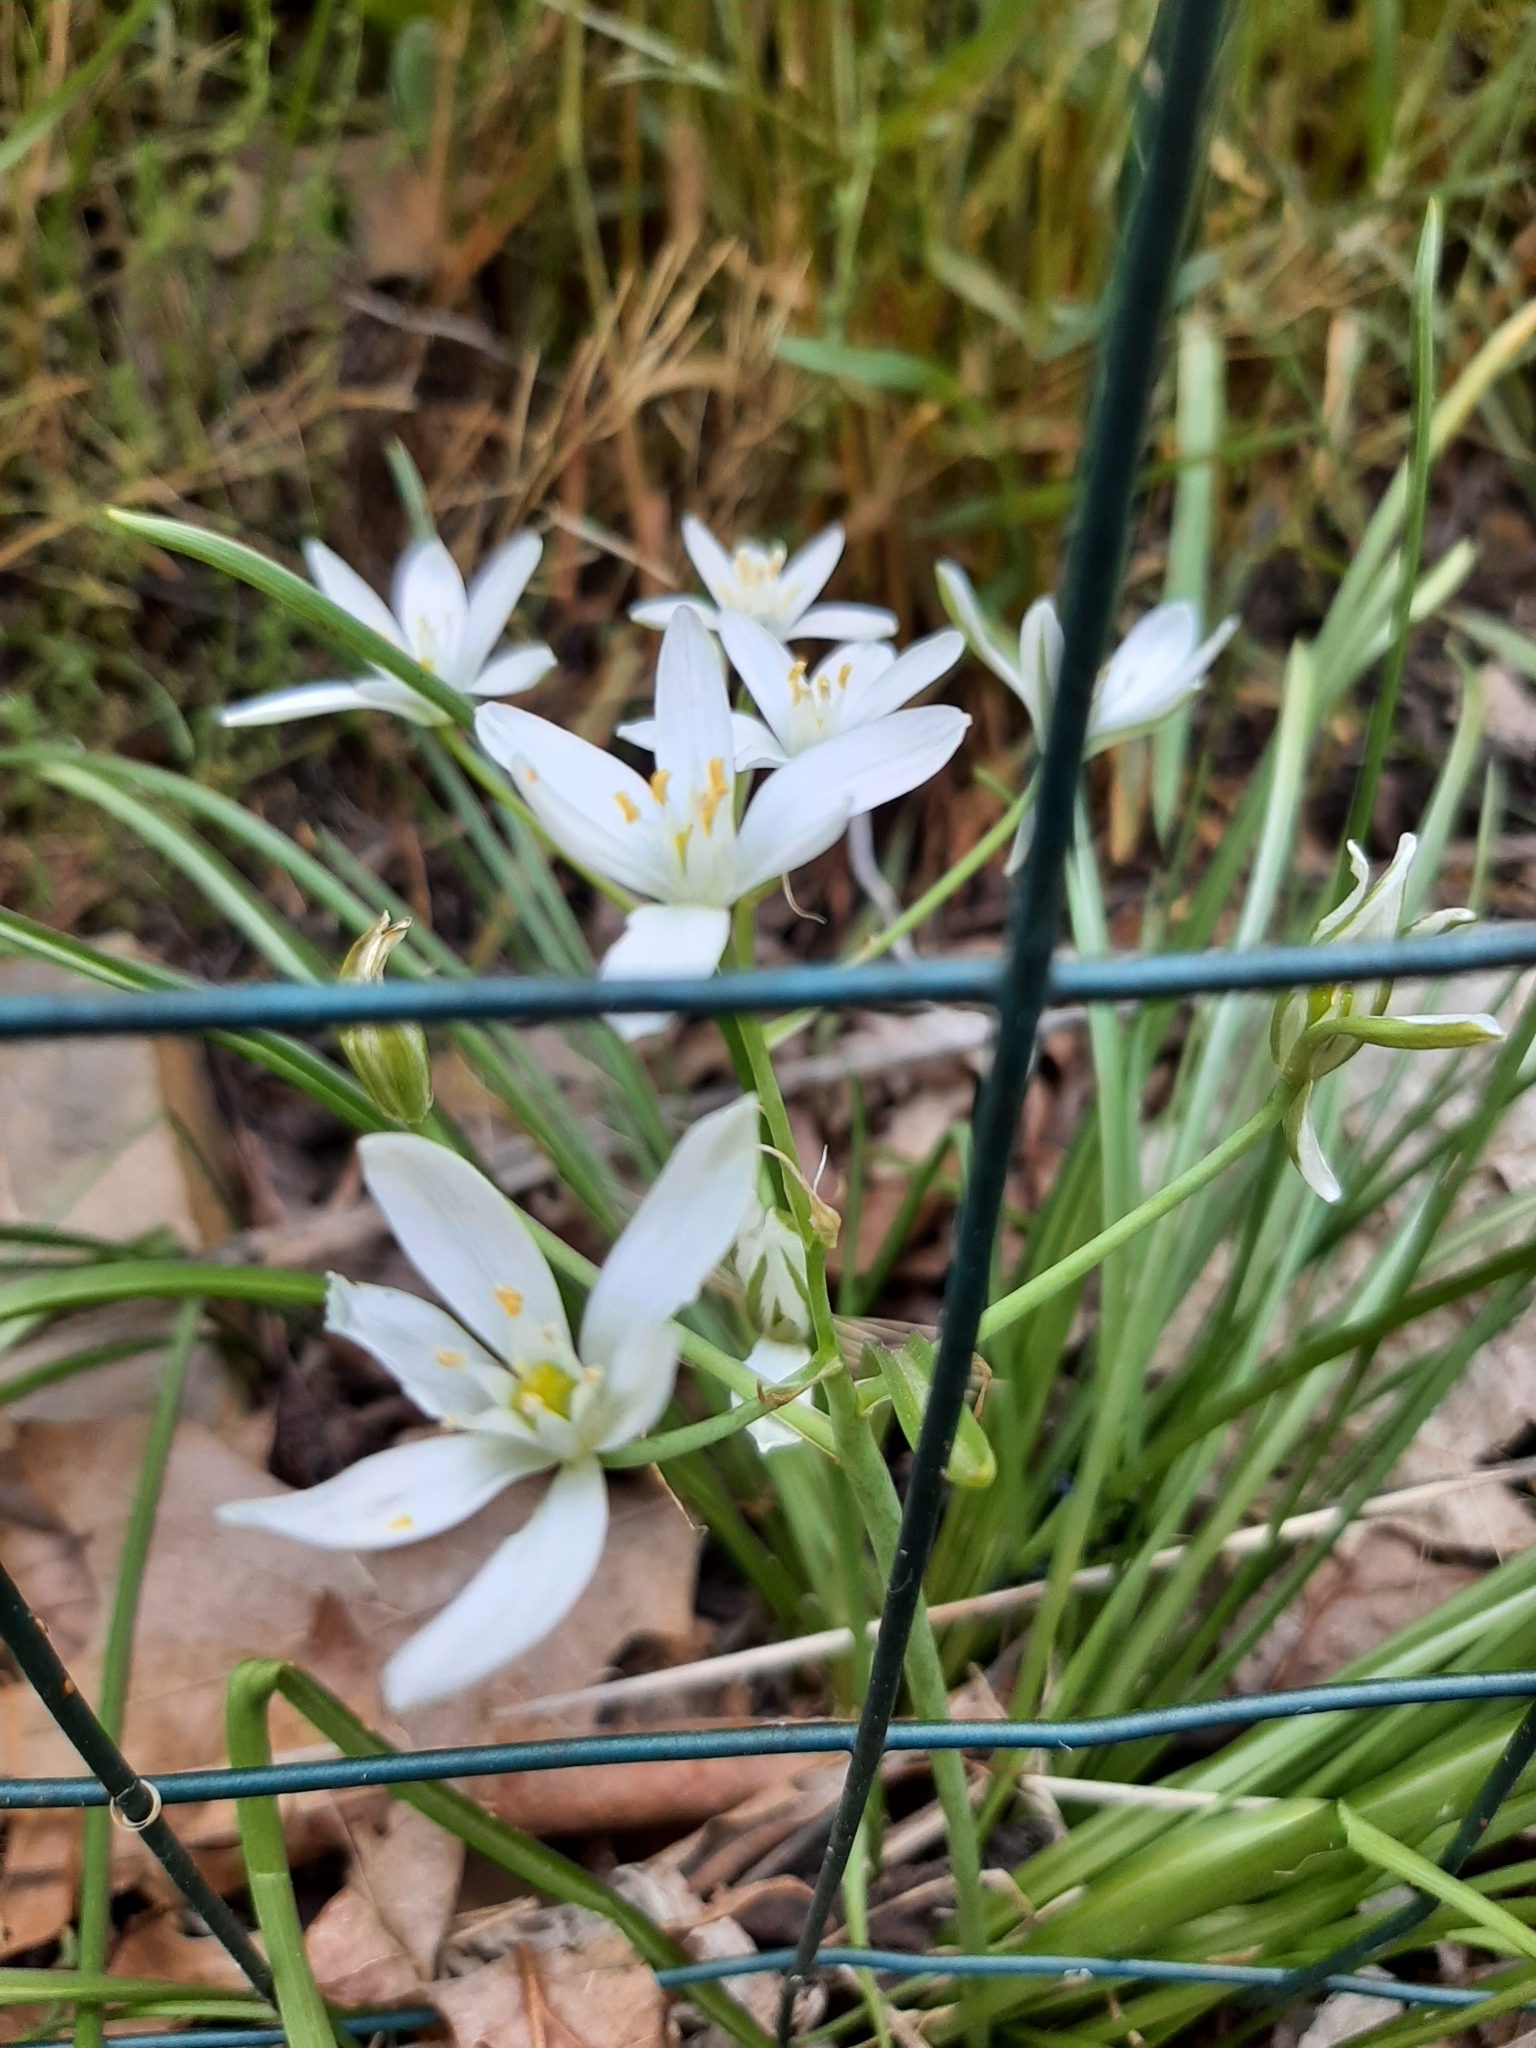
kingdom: Plantae
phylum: Tracheophyta
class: Liliopsida
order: Asparagales
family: Asparagaceae
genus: Ornithogalum
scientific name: Ornithogalum umbellatum
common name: Garden star-of-bethlehem
